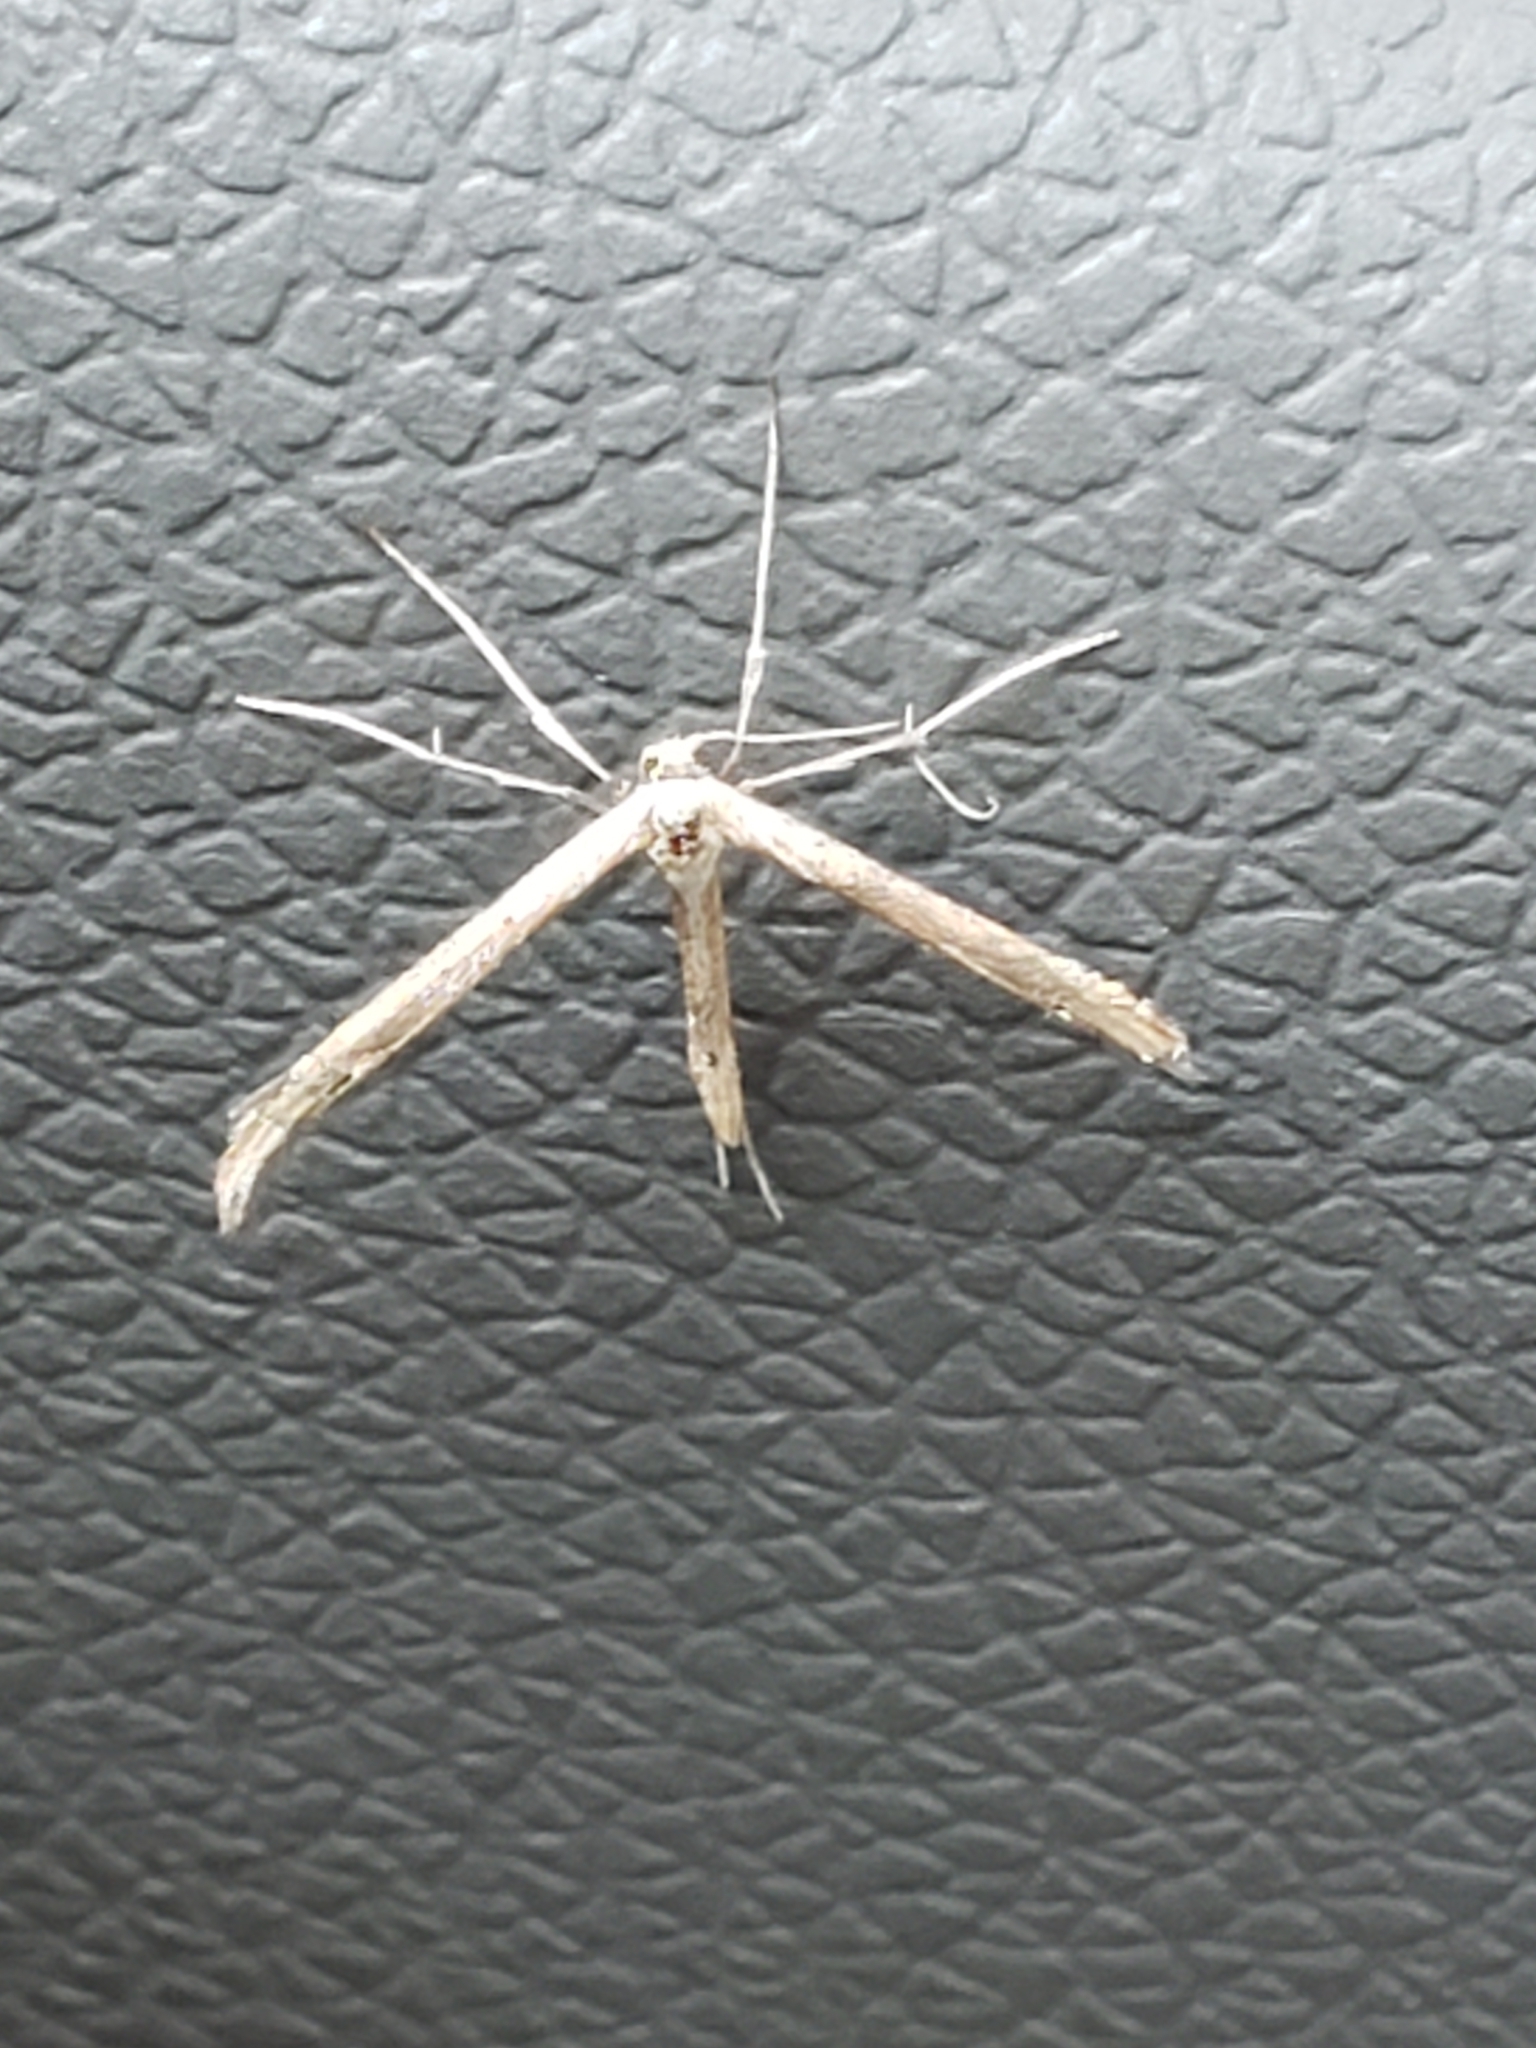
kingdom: Animalia
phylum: Arthropoda
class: Insecta
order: Lepidoptera
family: Pterophoridae
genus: Emmelina
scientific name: Emmelina monodactyla
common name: Common plume
